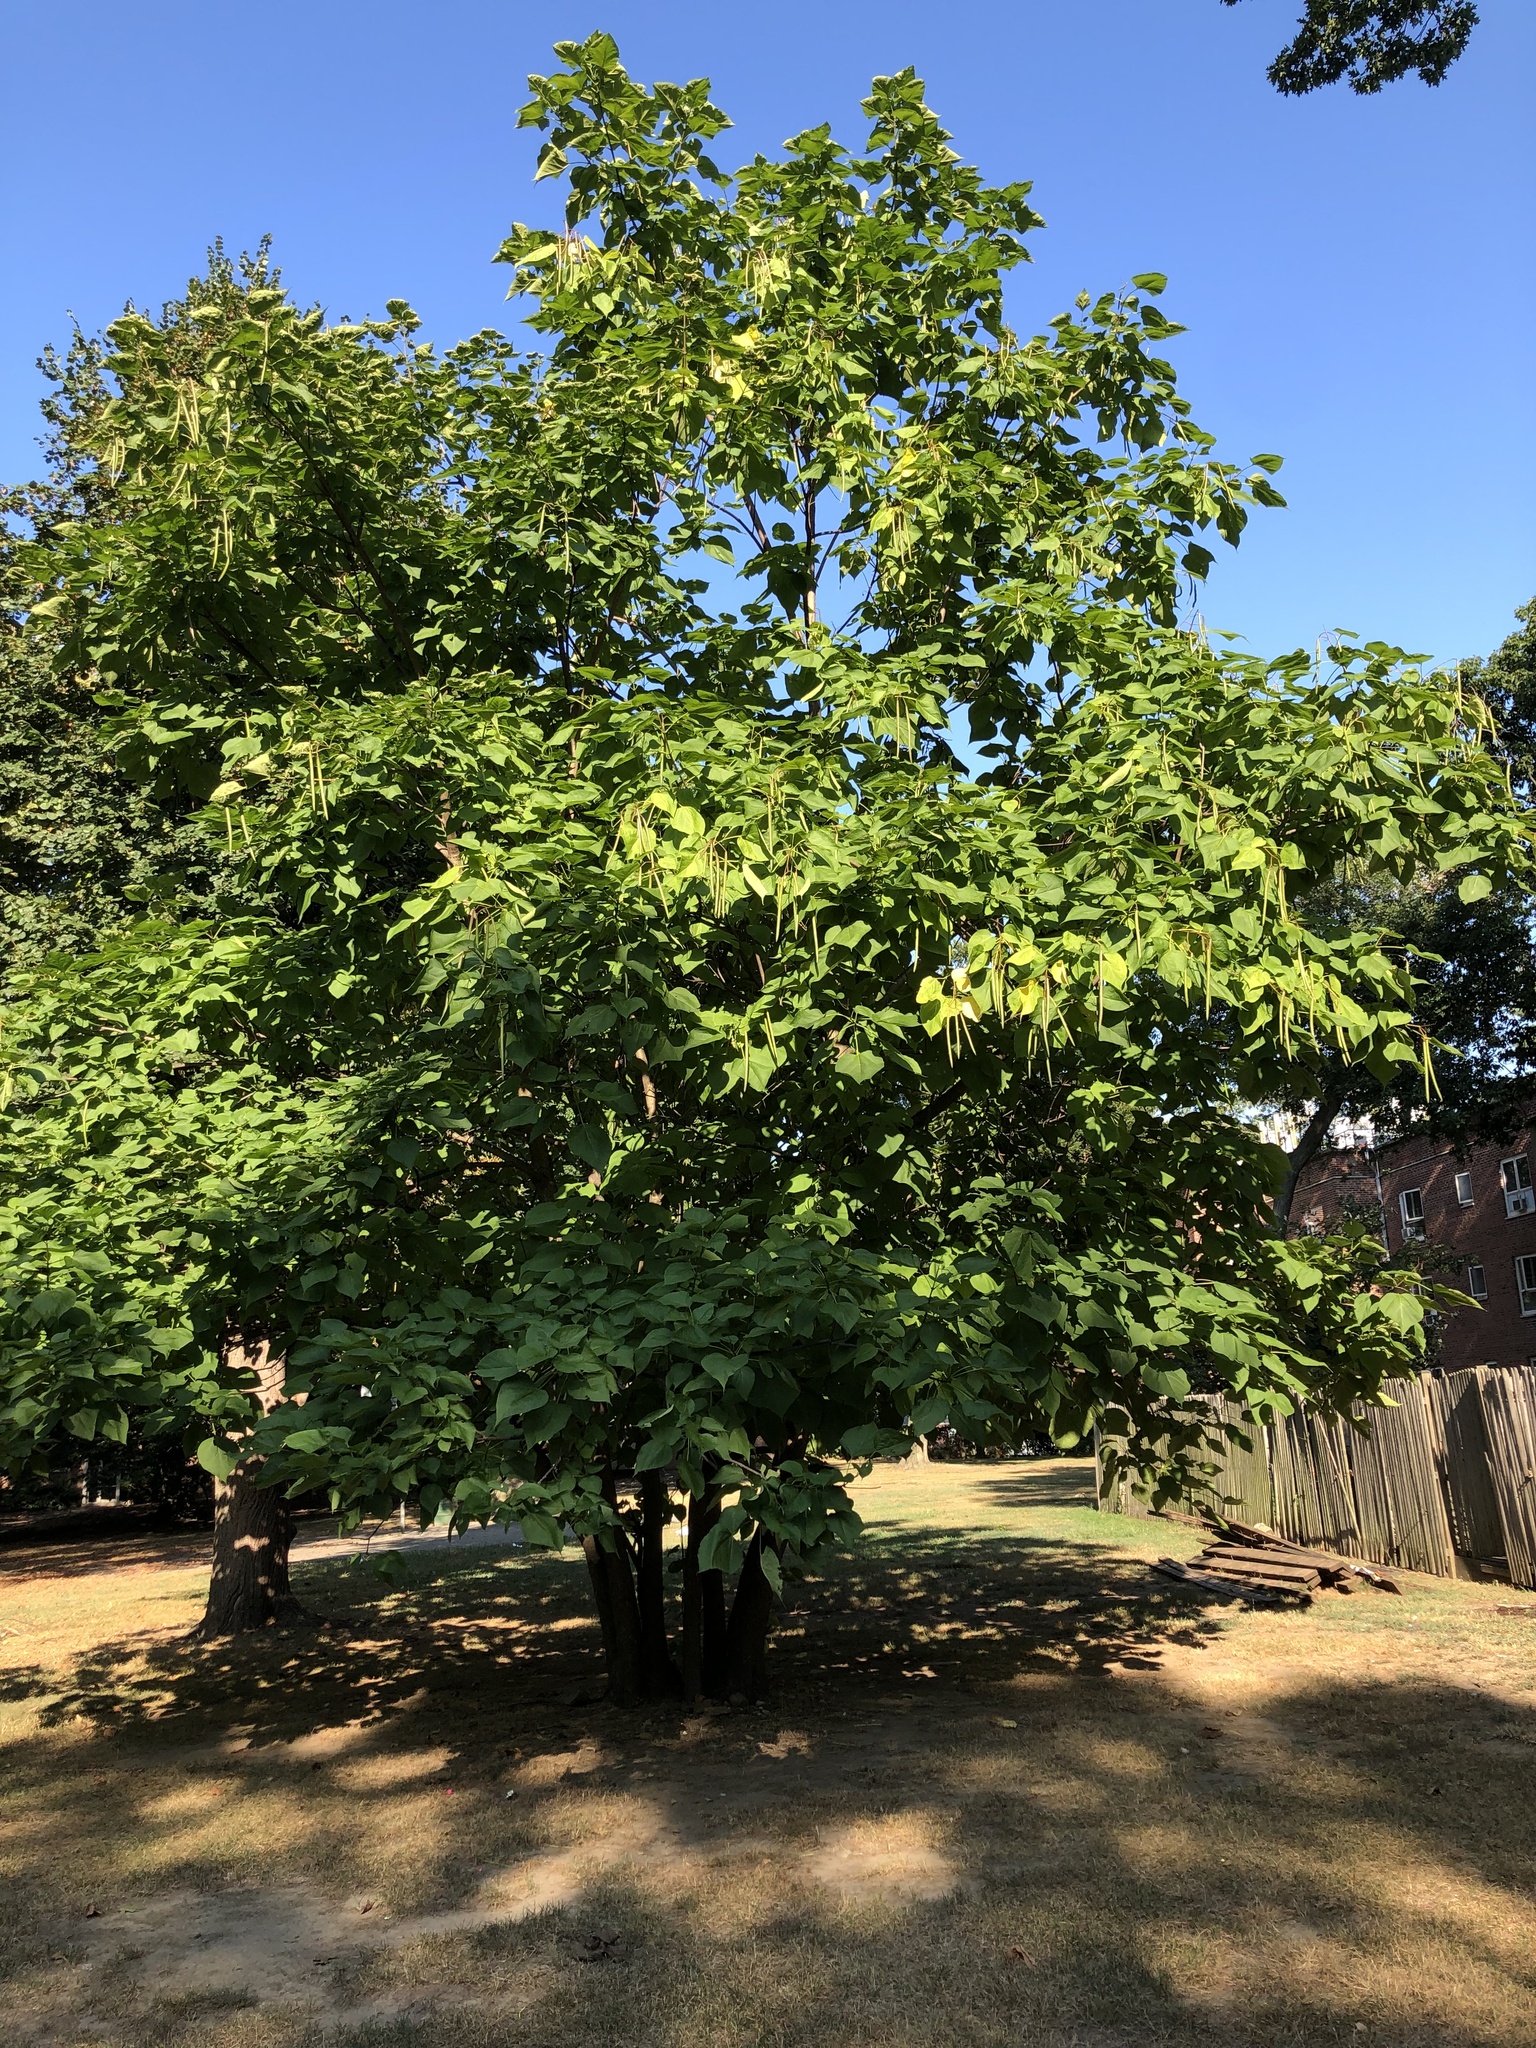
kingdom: Plantae
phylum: Tracheophyta
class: Magnoliopsida
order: Lamiales
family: Bignoniaceae
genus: Catalpa
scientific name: Catalpa speciosa
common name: Northern catalpa
